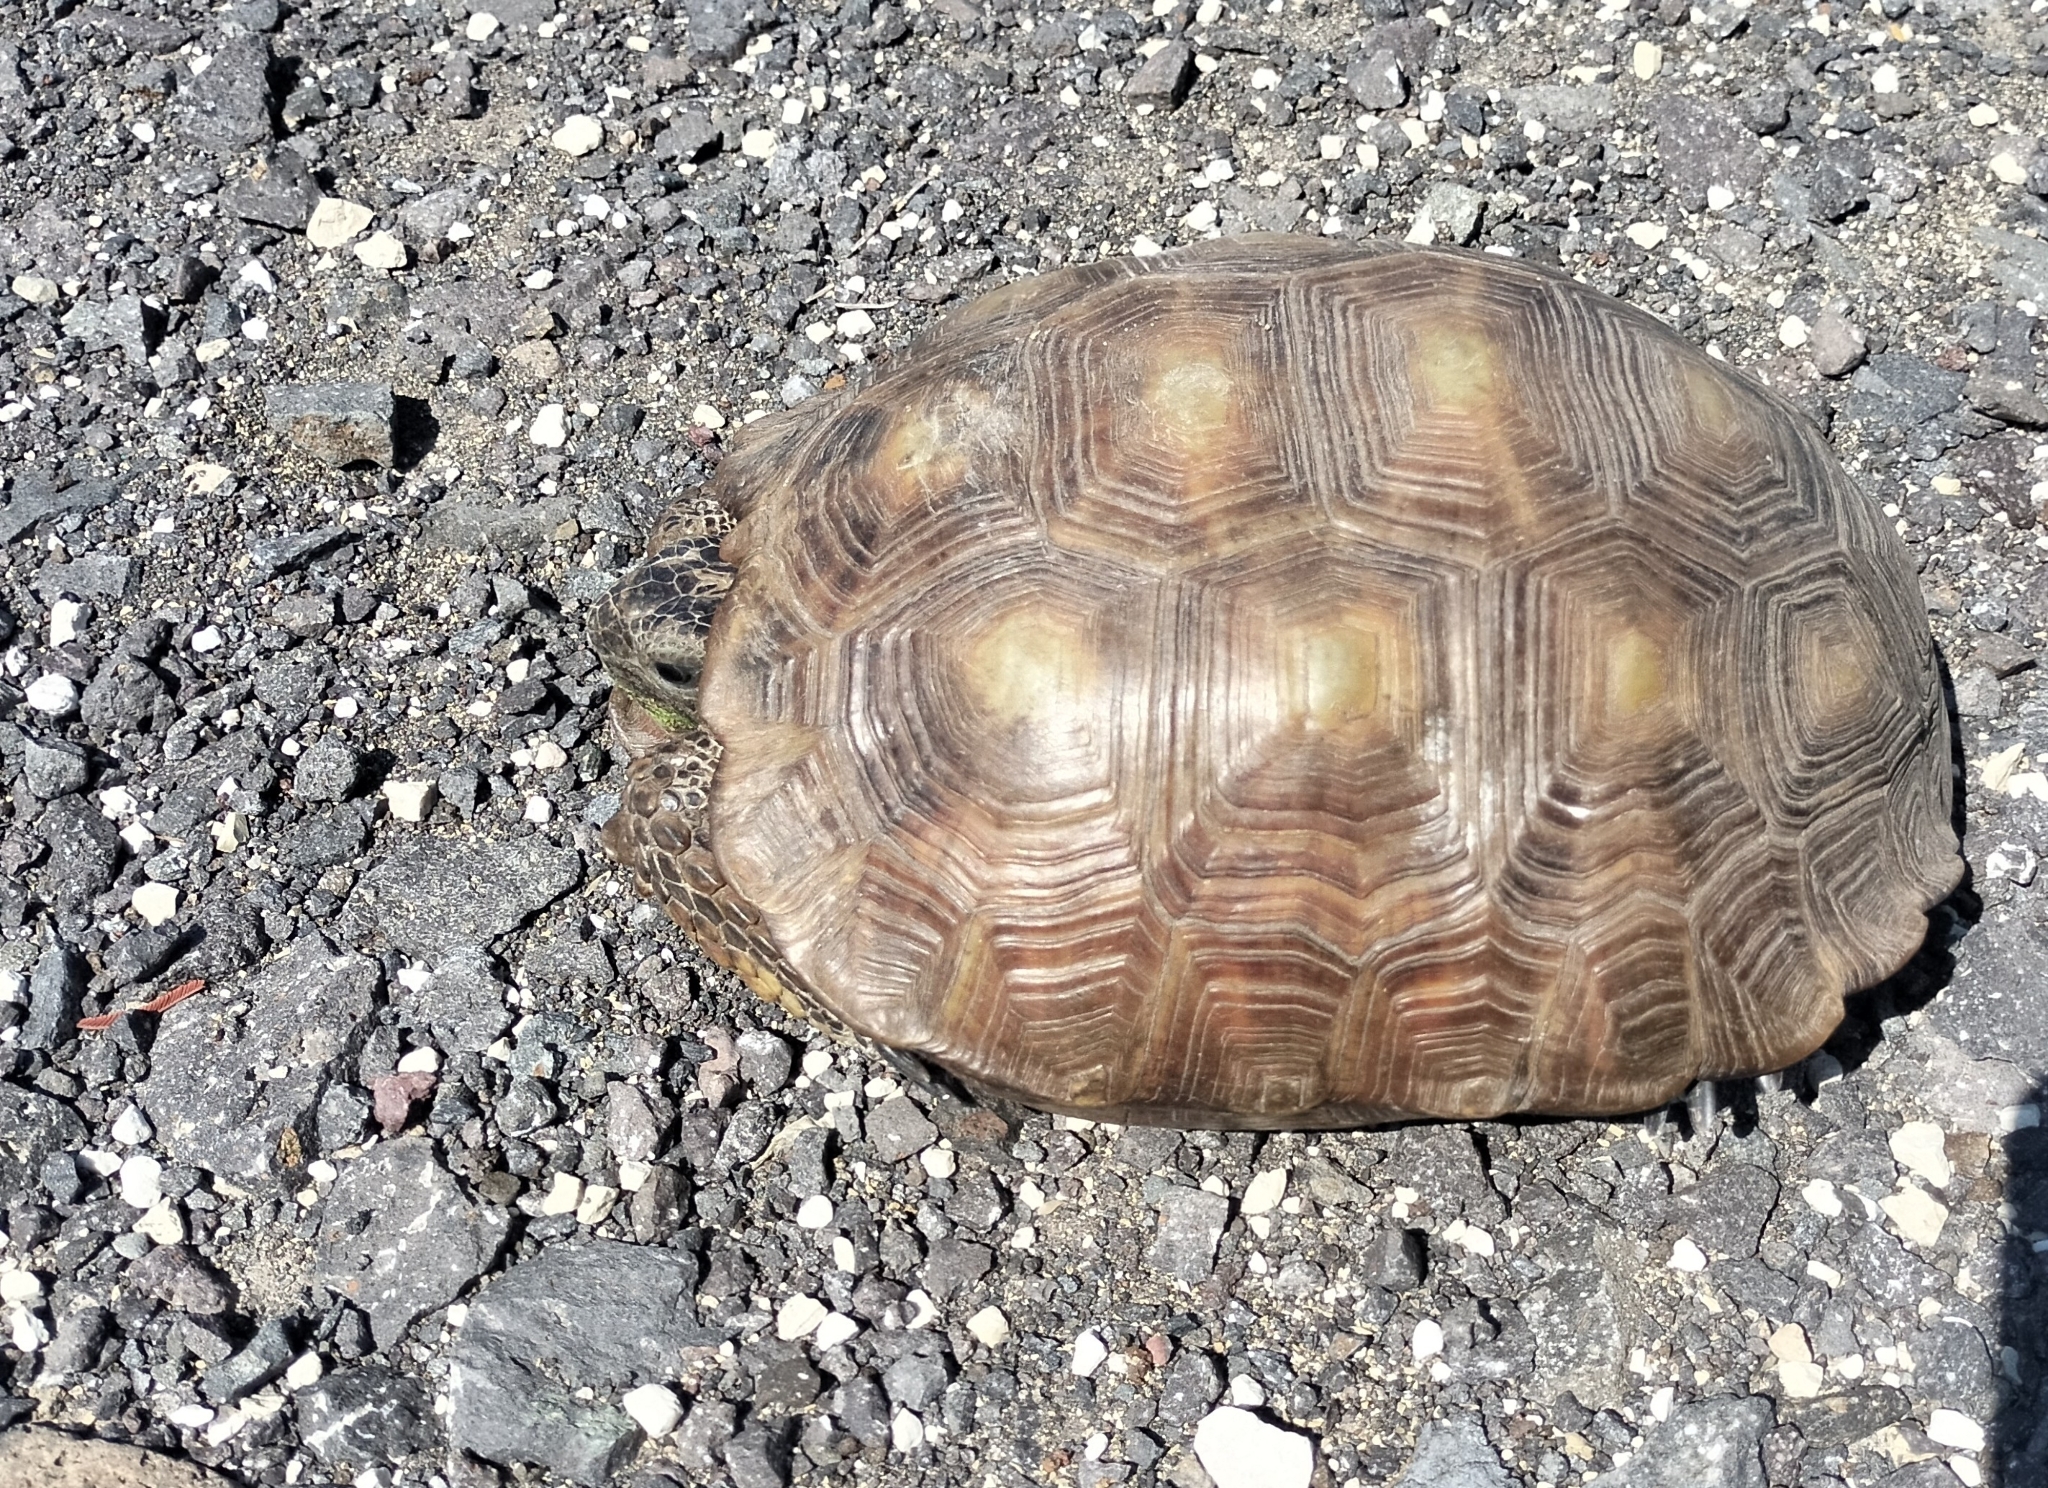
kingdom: Animalia
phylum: Chordata
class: Testudines
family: Testudinidae
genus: Gopherus
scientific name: Gopherus berlandieri
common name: Texas (gopher )tortoise
